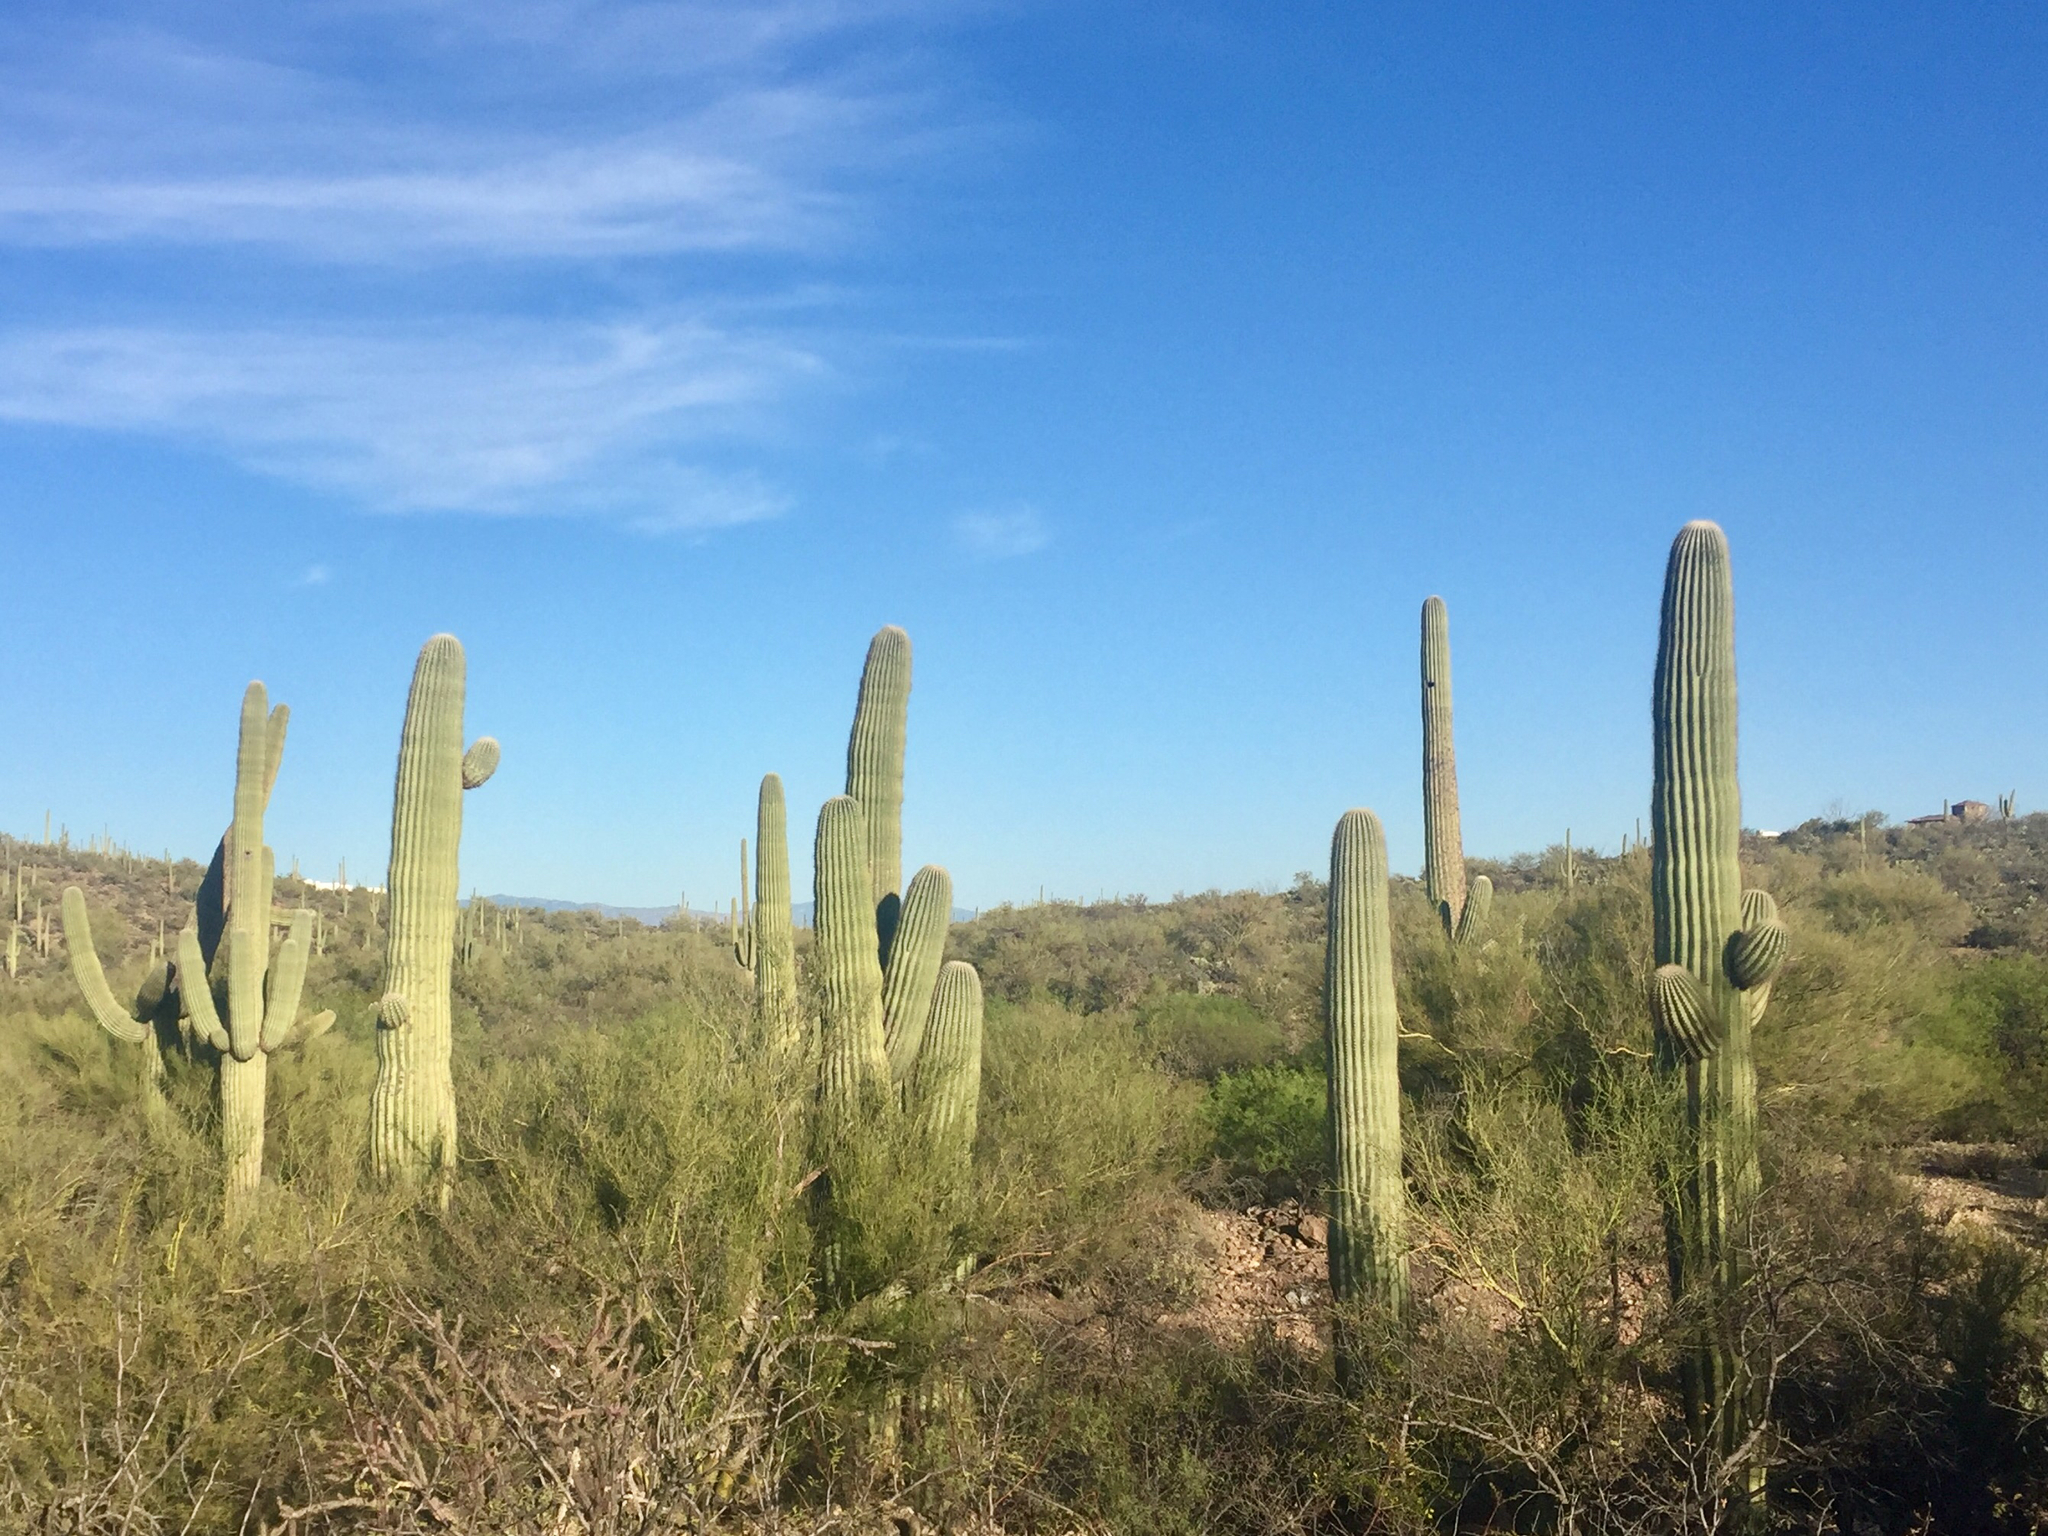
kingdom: Plantae
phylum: Tracheophyta
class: Magnoliopsida
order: Caryophyllales
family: Cactaceae
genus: Carnegiea
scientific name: Carnegiea gigantea
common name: Saguaro
